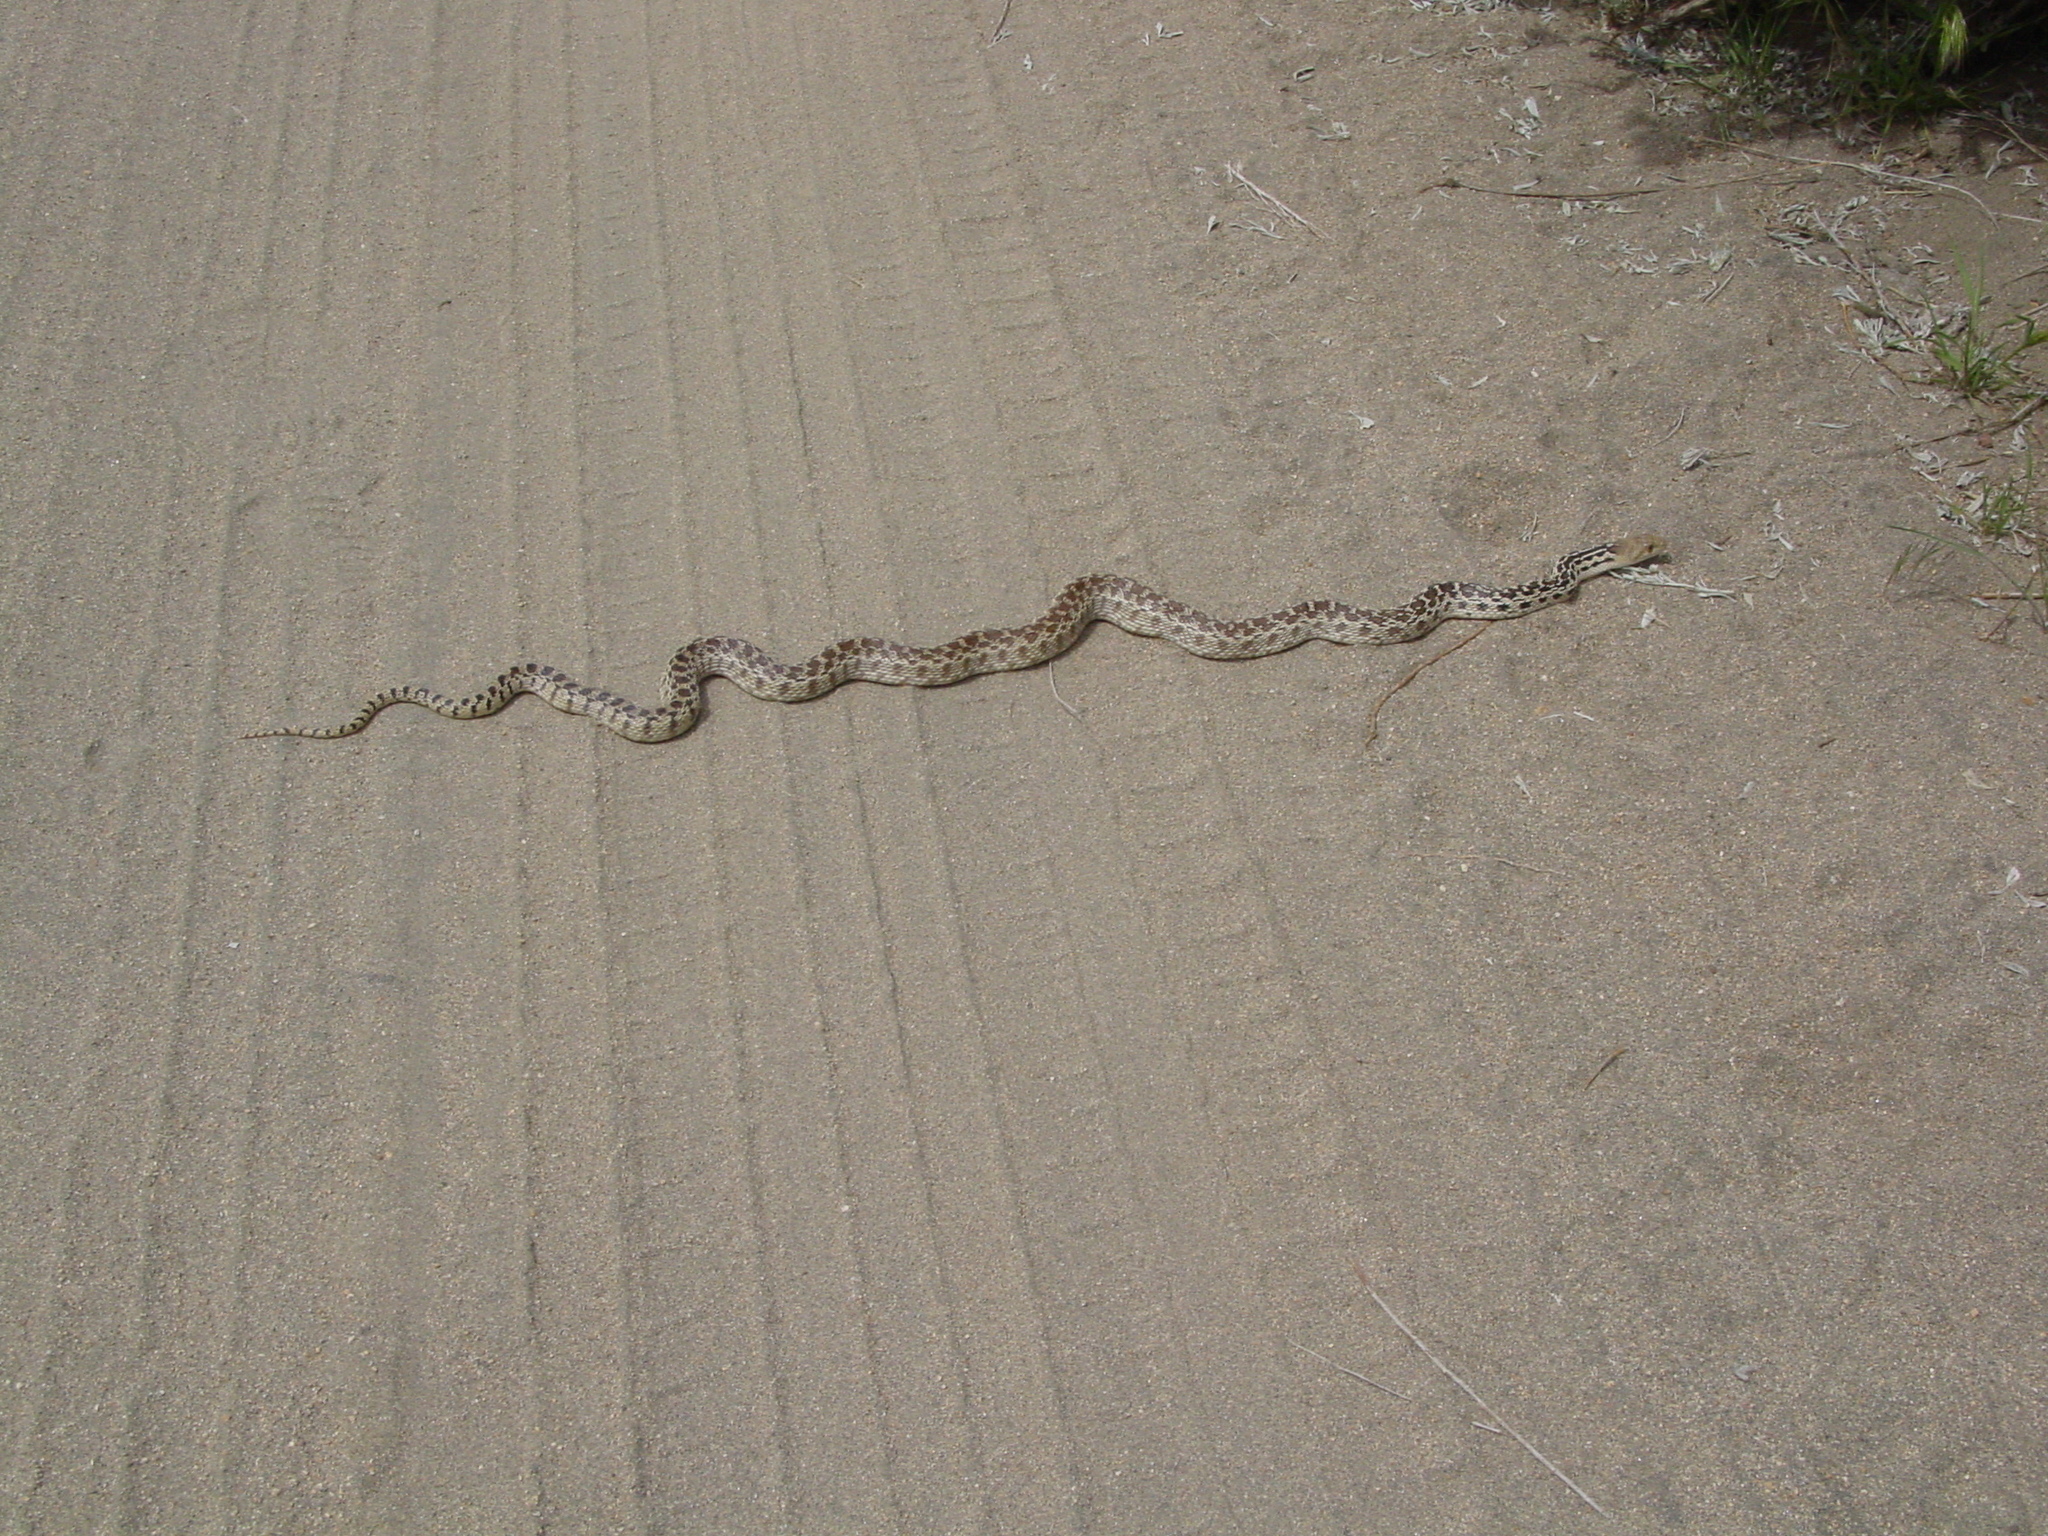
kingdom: Animalia
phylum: Chordata
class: Squamata
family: Colubridae
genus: Pituophis
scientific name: Pituophis catenifer
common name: Gopher snake
